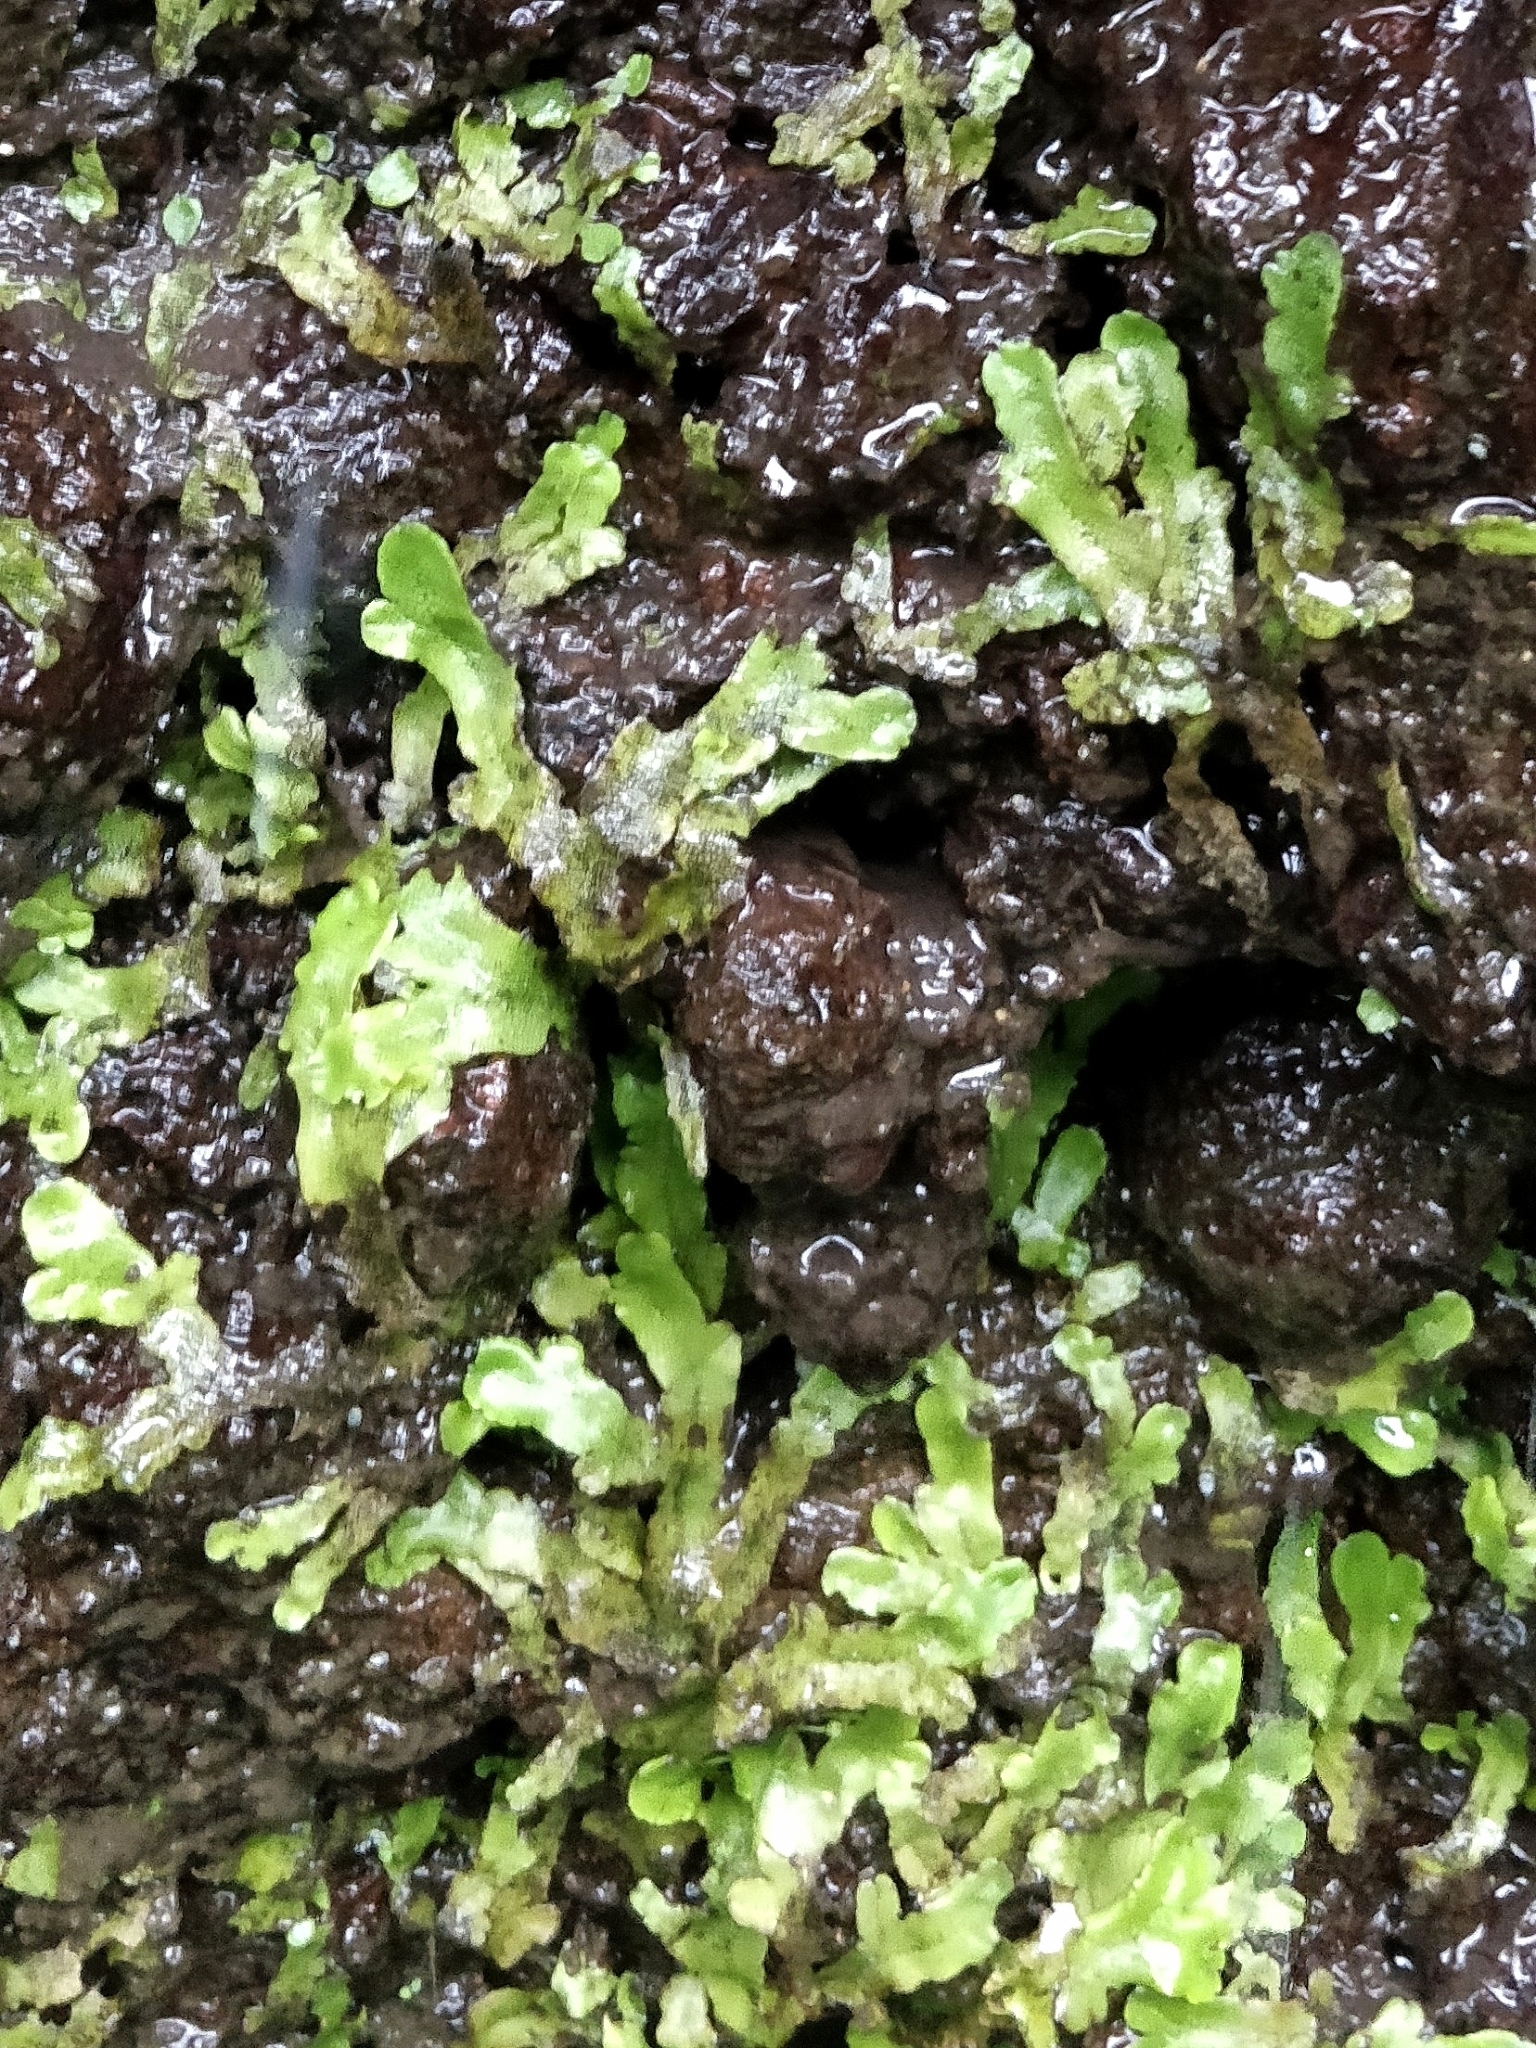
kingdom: Plantae
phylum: Marchantiophyta
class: Marchantiopsida
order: Marchantiales
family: Conocephalaceae
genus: Conocephalum
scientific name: Conocephalum conicum
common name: Great scented liverwort
